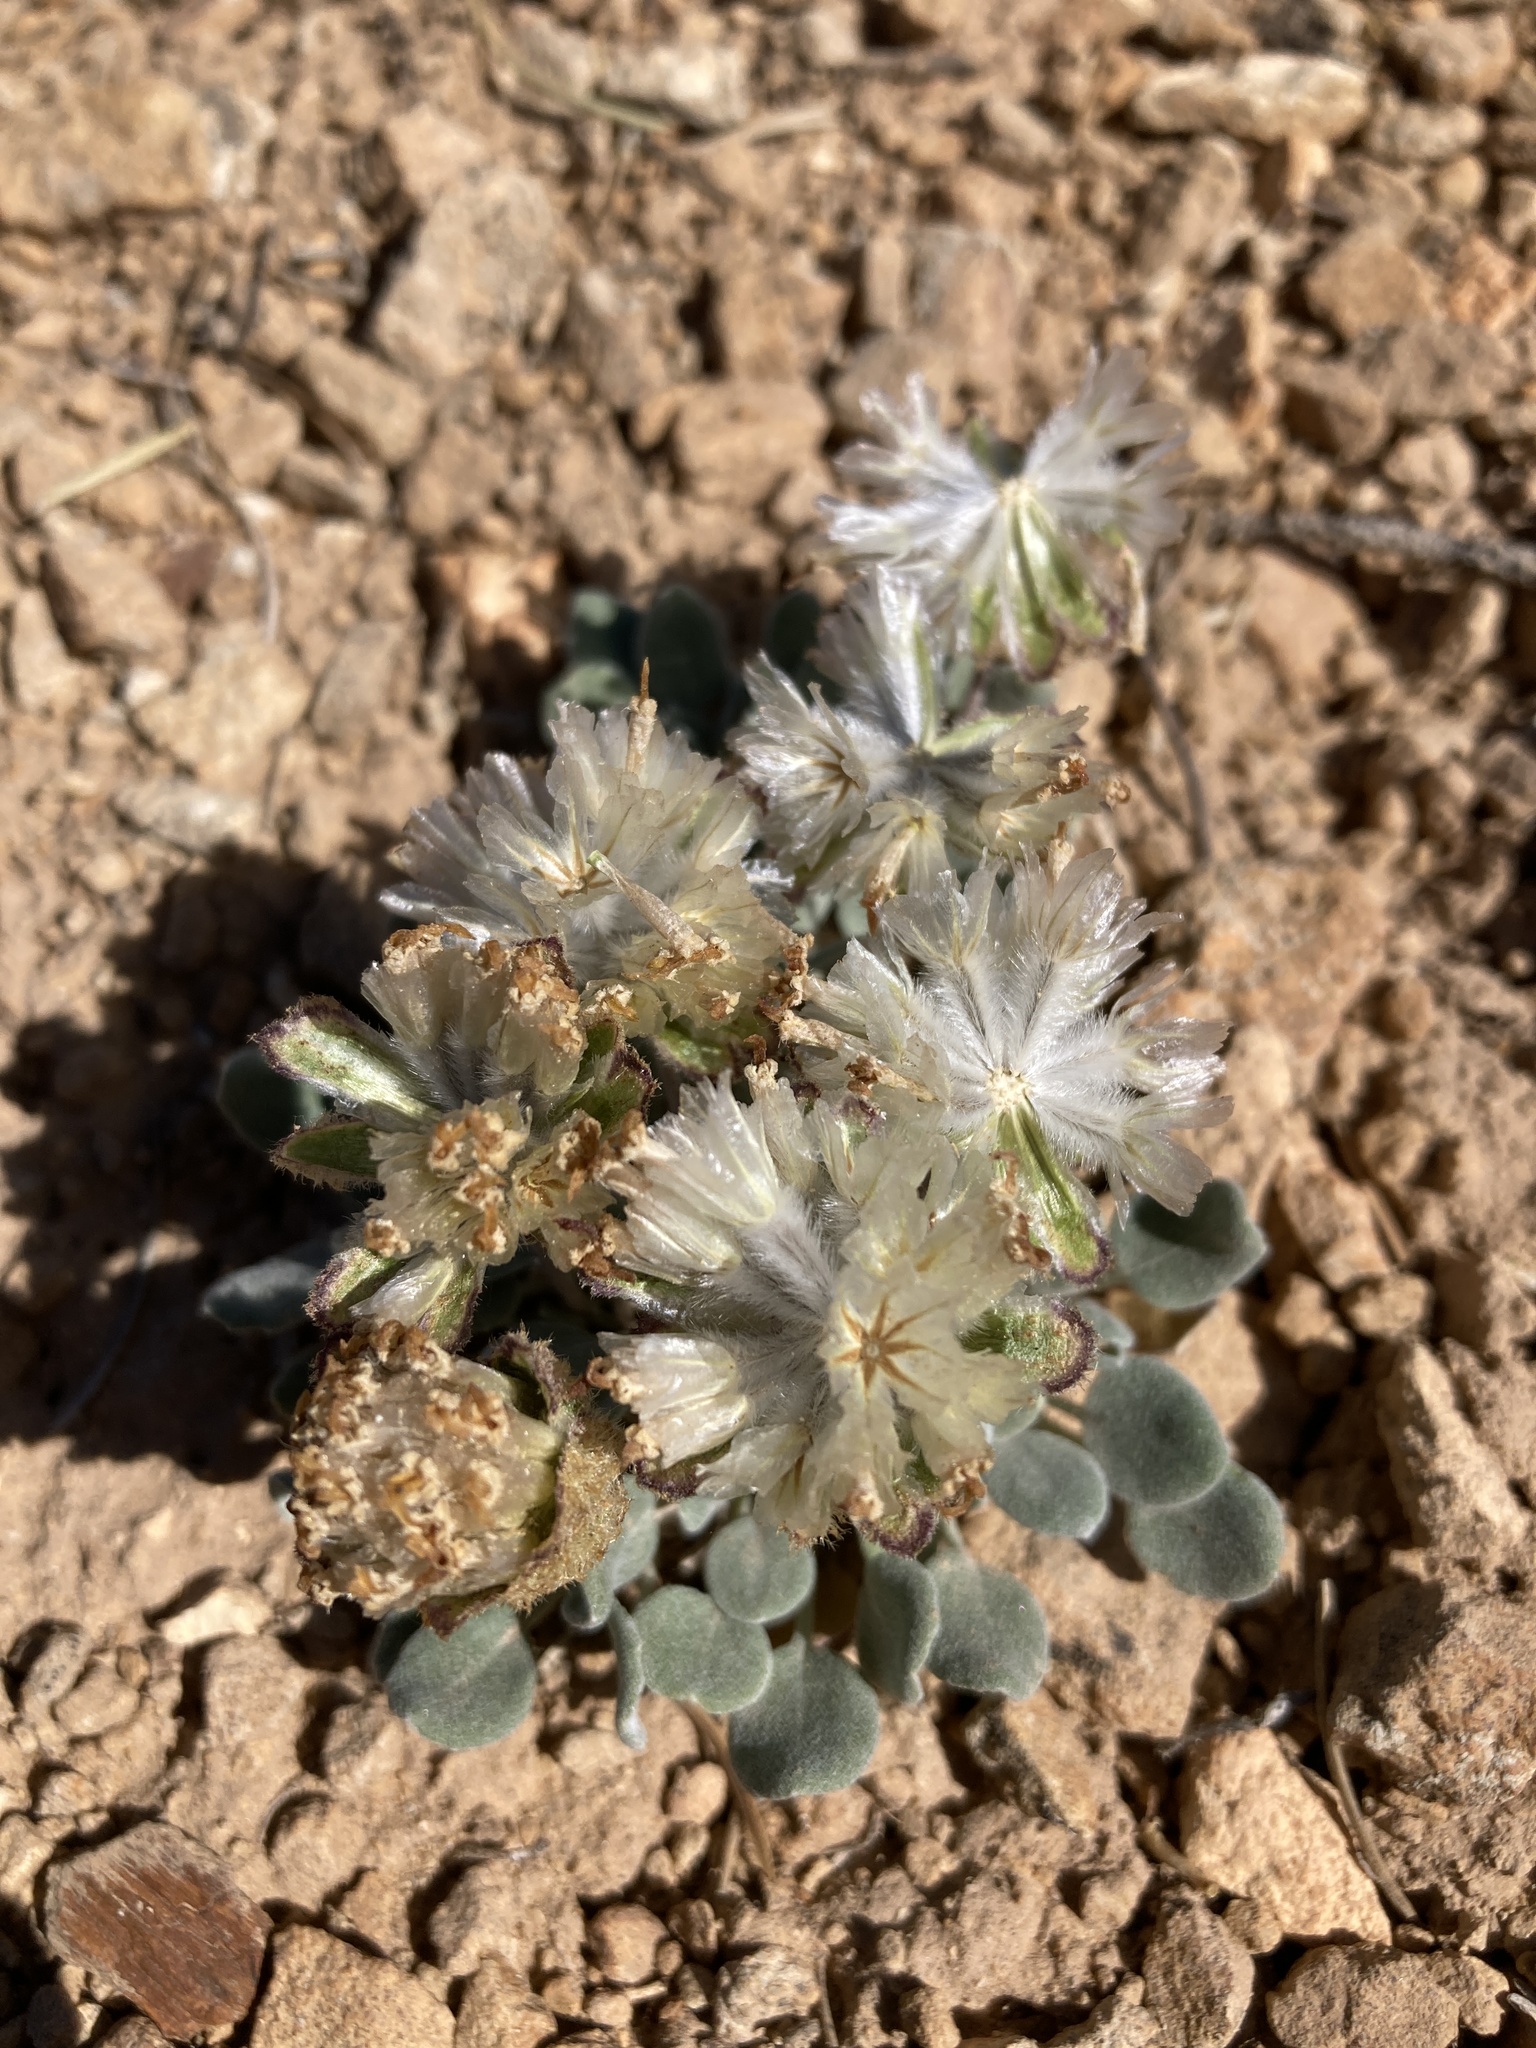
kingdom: Plantae
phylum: Tracheophyta
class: Magnoliopsida
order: Asterales
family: Asteraceae
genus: Chamaechaenactis
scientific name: Chamaechaenactis scaposa
